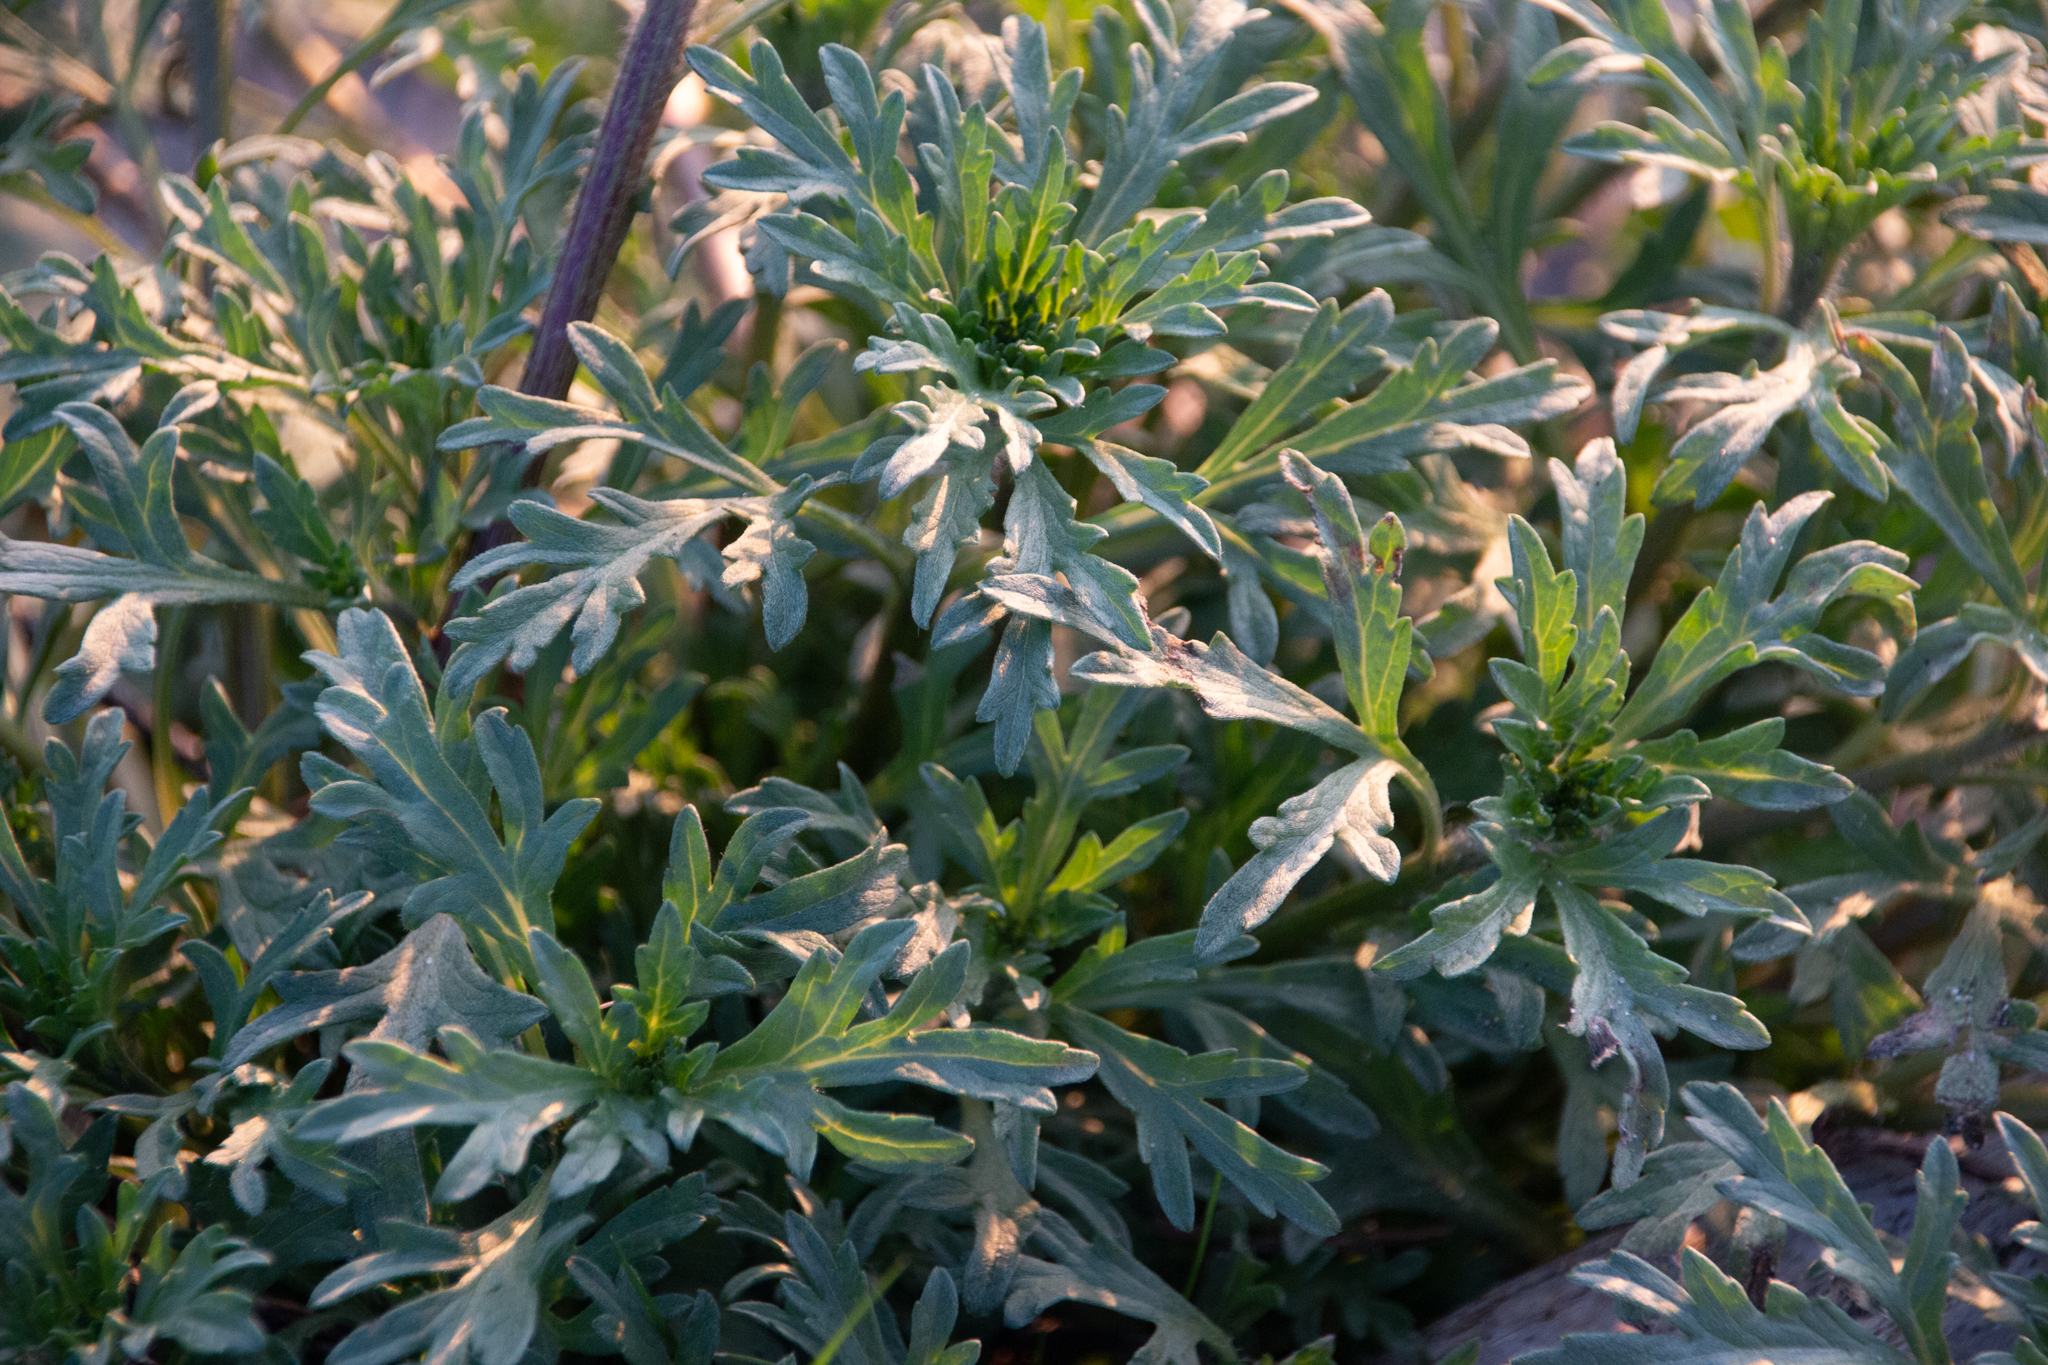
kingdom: Plantae
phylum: Tracheophyta
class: Magnoliopsida
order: Asterales
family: Asteraceae
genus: Ambrosia
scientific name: Ambrosia chamissonis
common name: Beachbur
